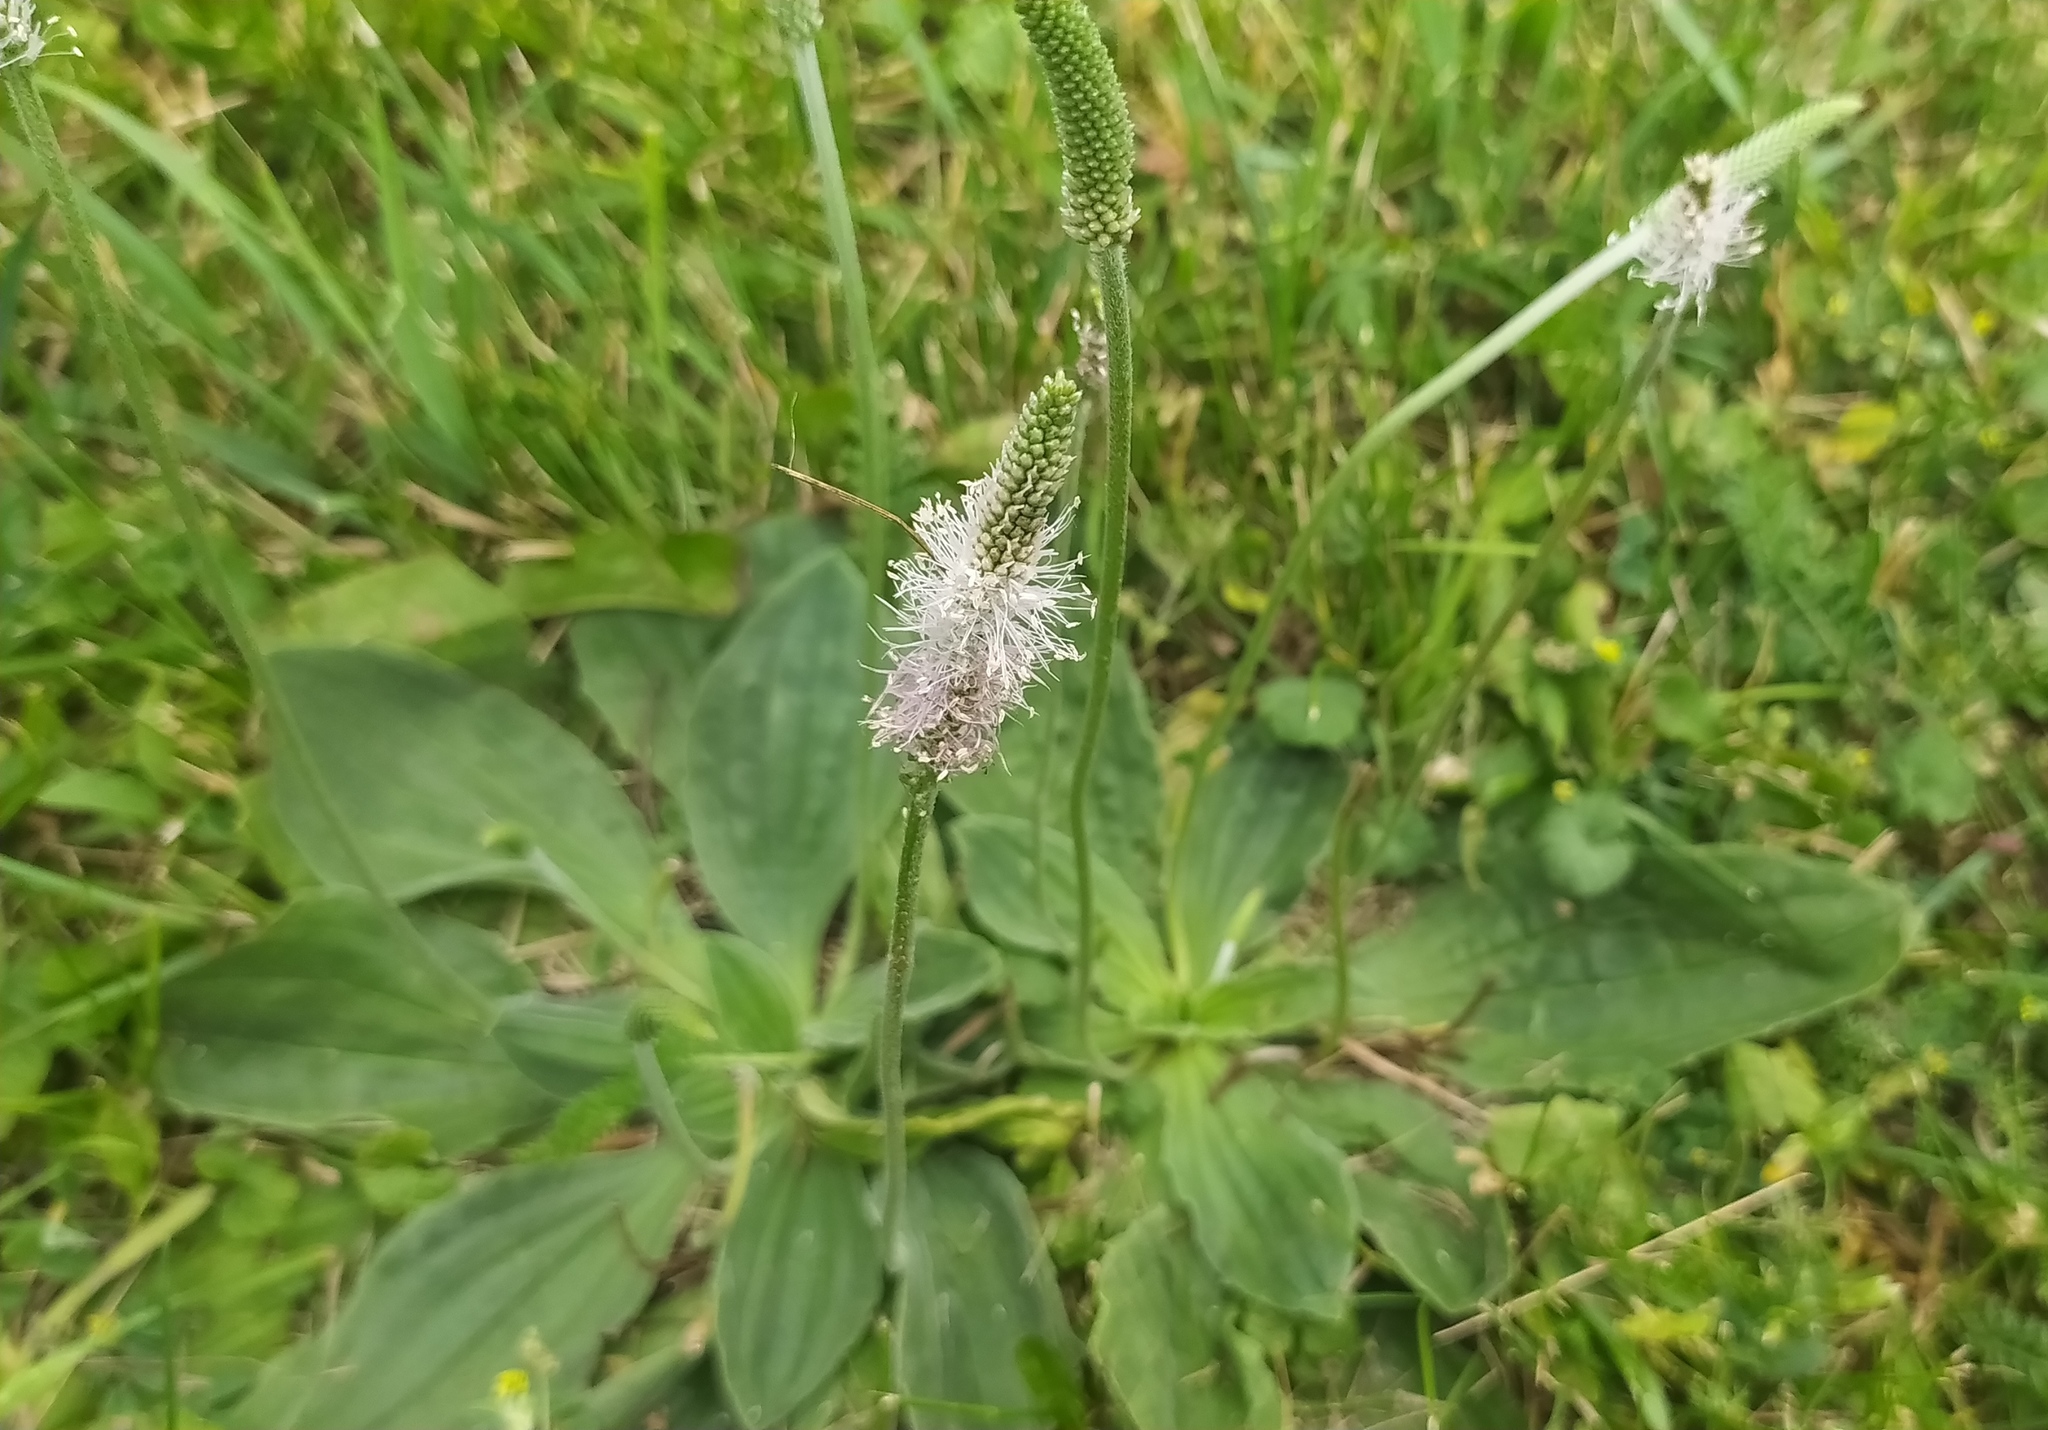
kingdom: Plantae
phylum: Tracheophyta
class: Magnoliopsida
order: Lamiales
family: Plantaginaceae
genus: Plantago
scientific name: Plantago media
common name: Hoary plantain
